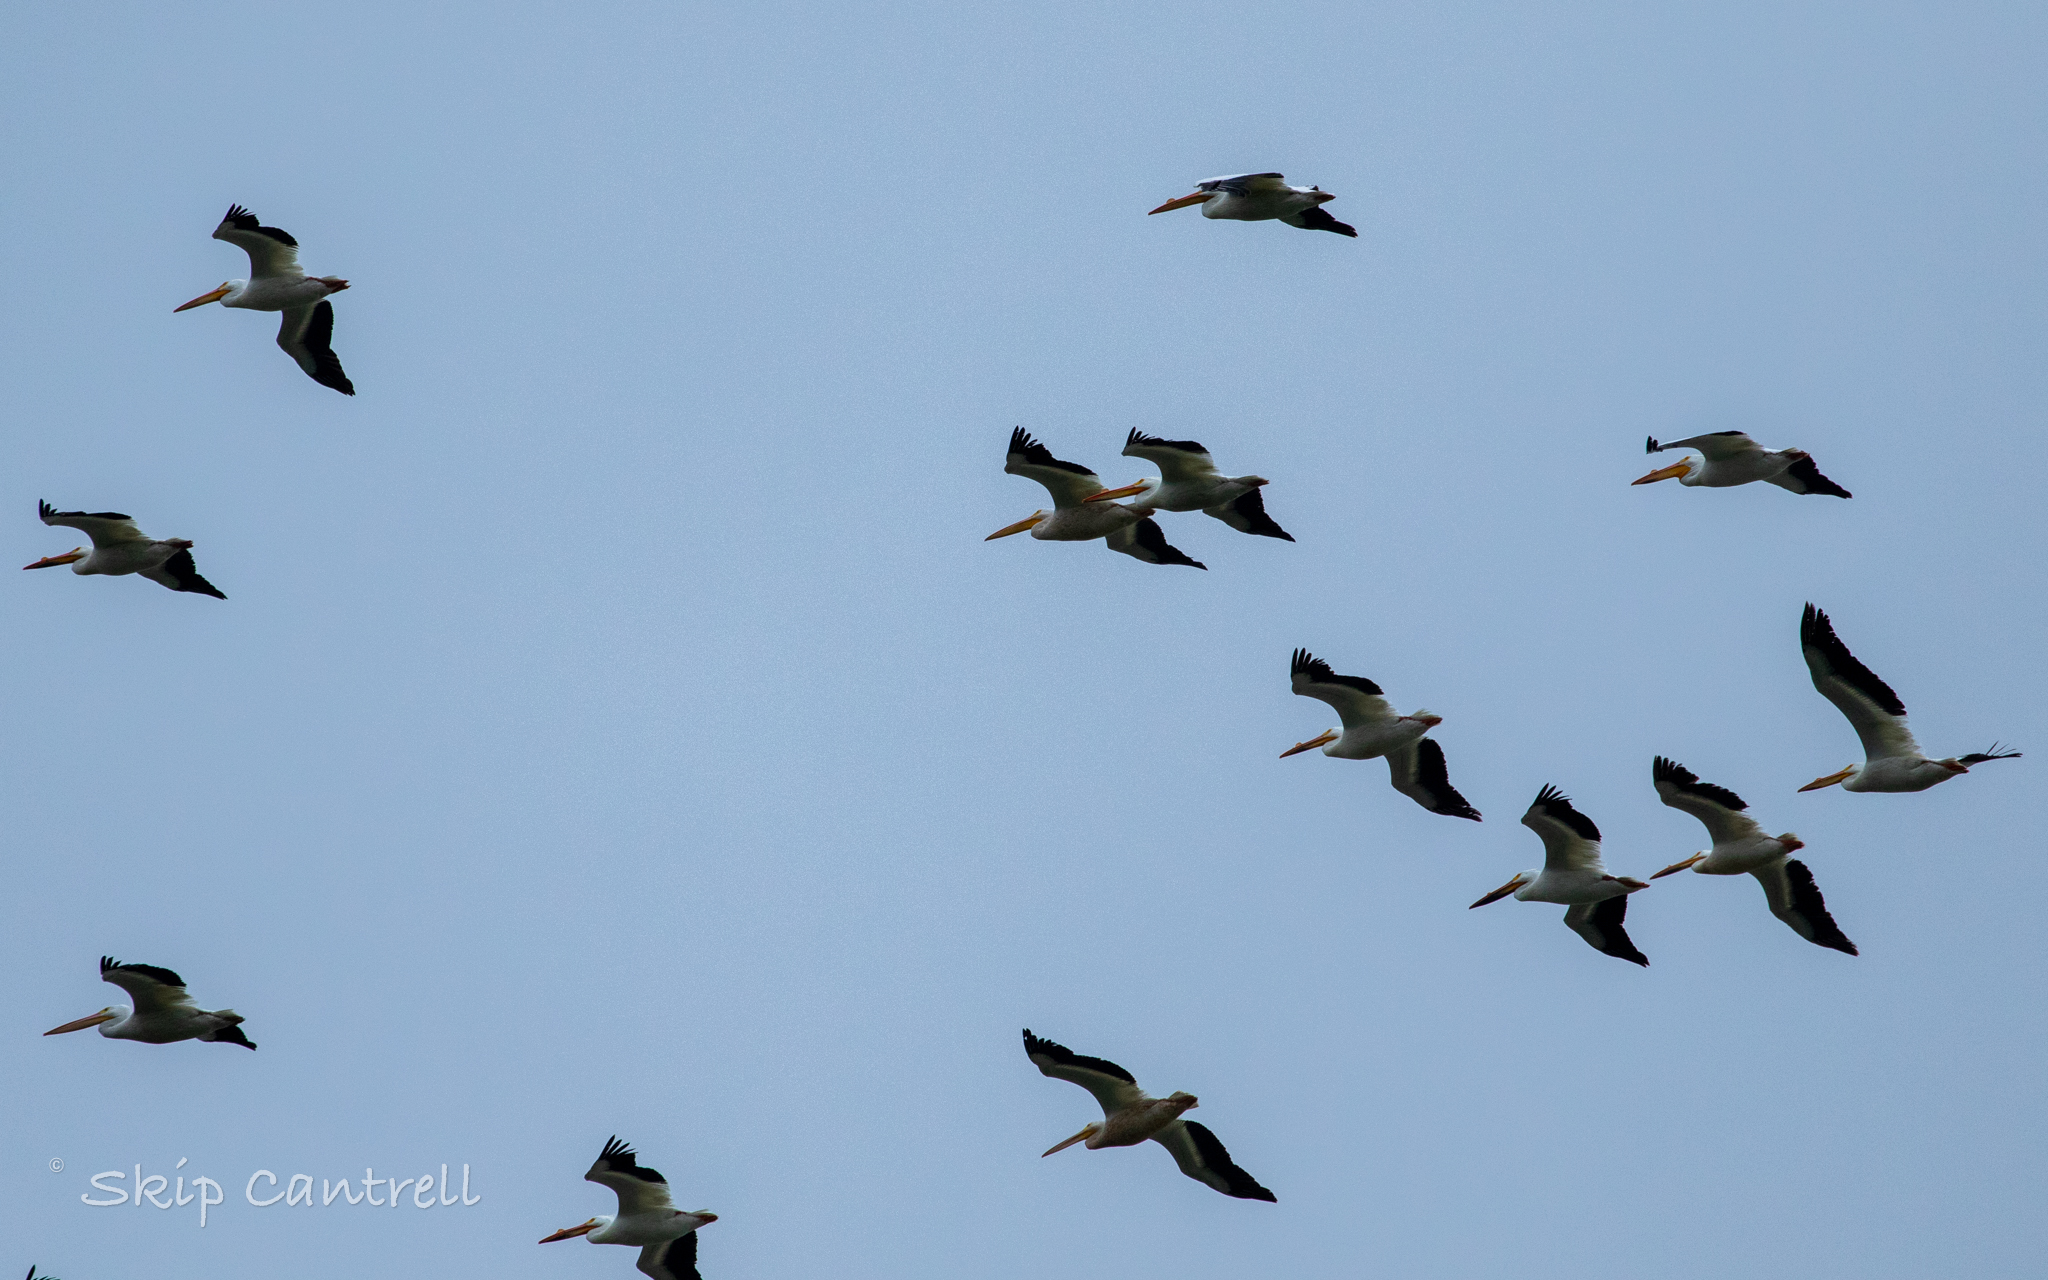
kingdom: Animalia
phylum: Chordata
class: Aves
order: Pelecaniformes
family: Pelecanidae
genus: Pelecanus
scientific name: Pelecanus erythrorhynchos
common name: American white pelican
